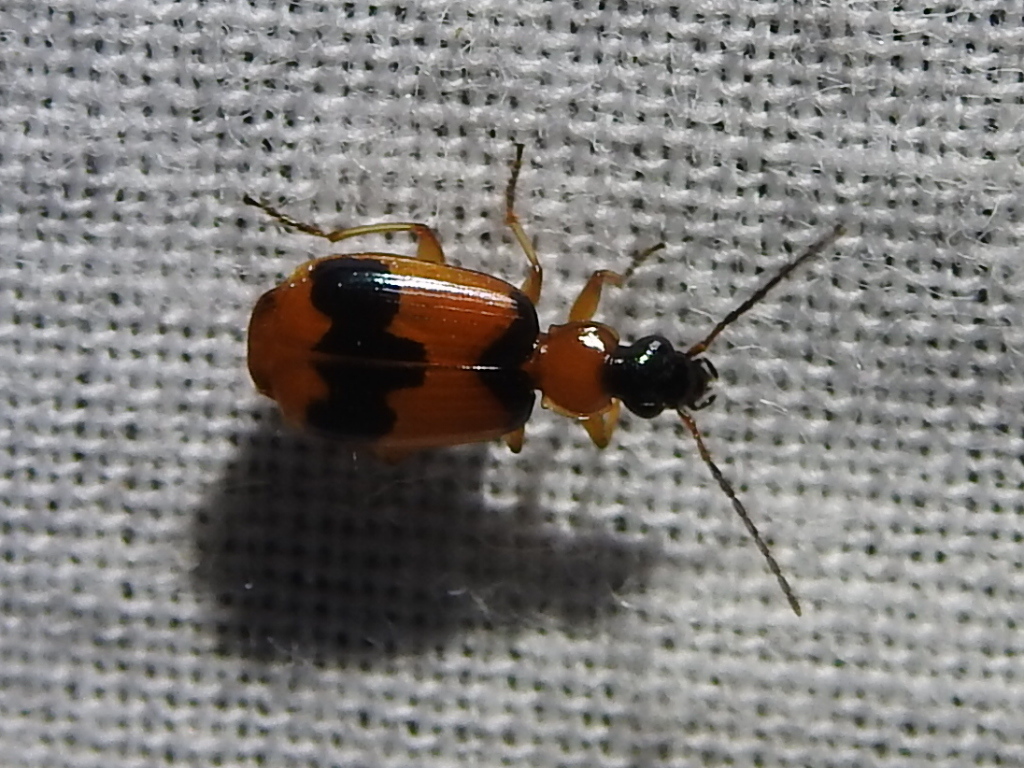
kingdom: Animalia
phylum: Arthropoda
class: Insecta
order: Coleoptera
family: Carabidae
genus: Lebia
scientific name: Lebia pulchella
